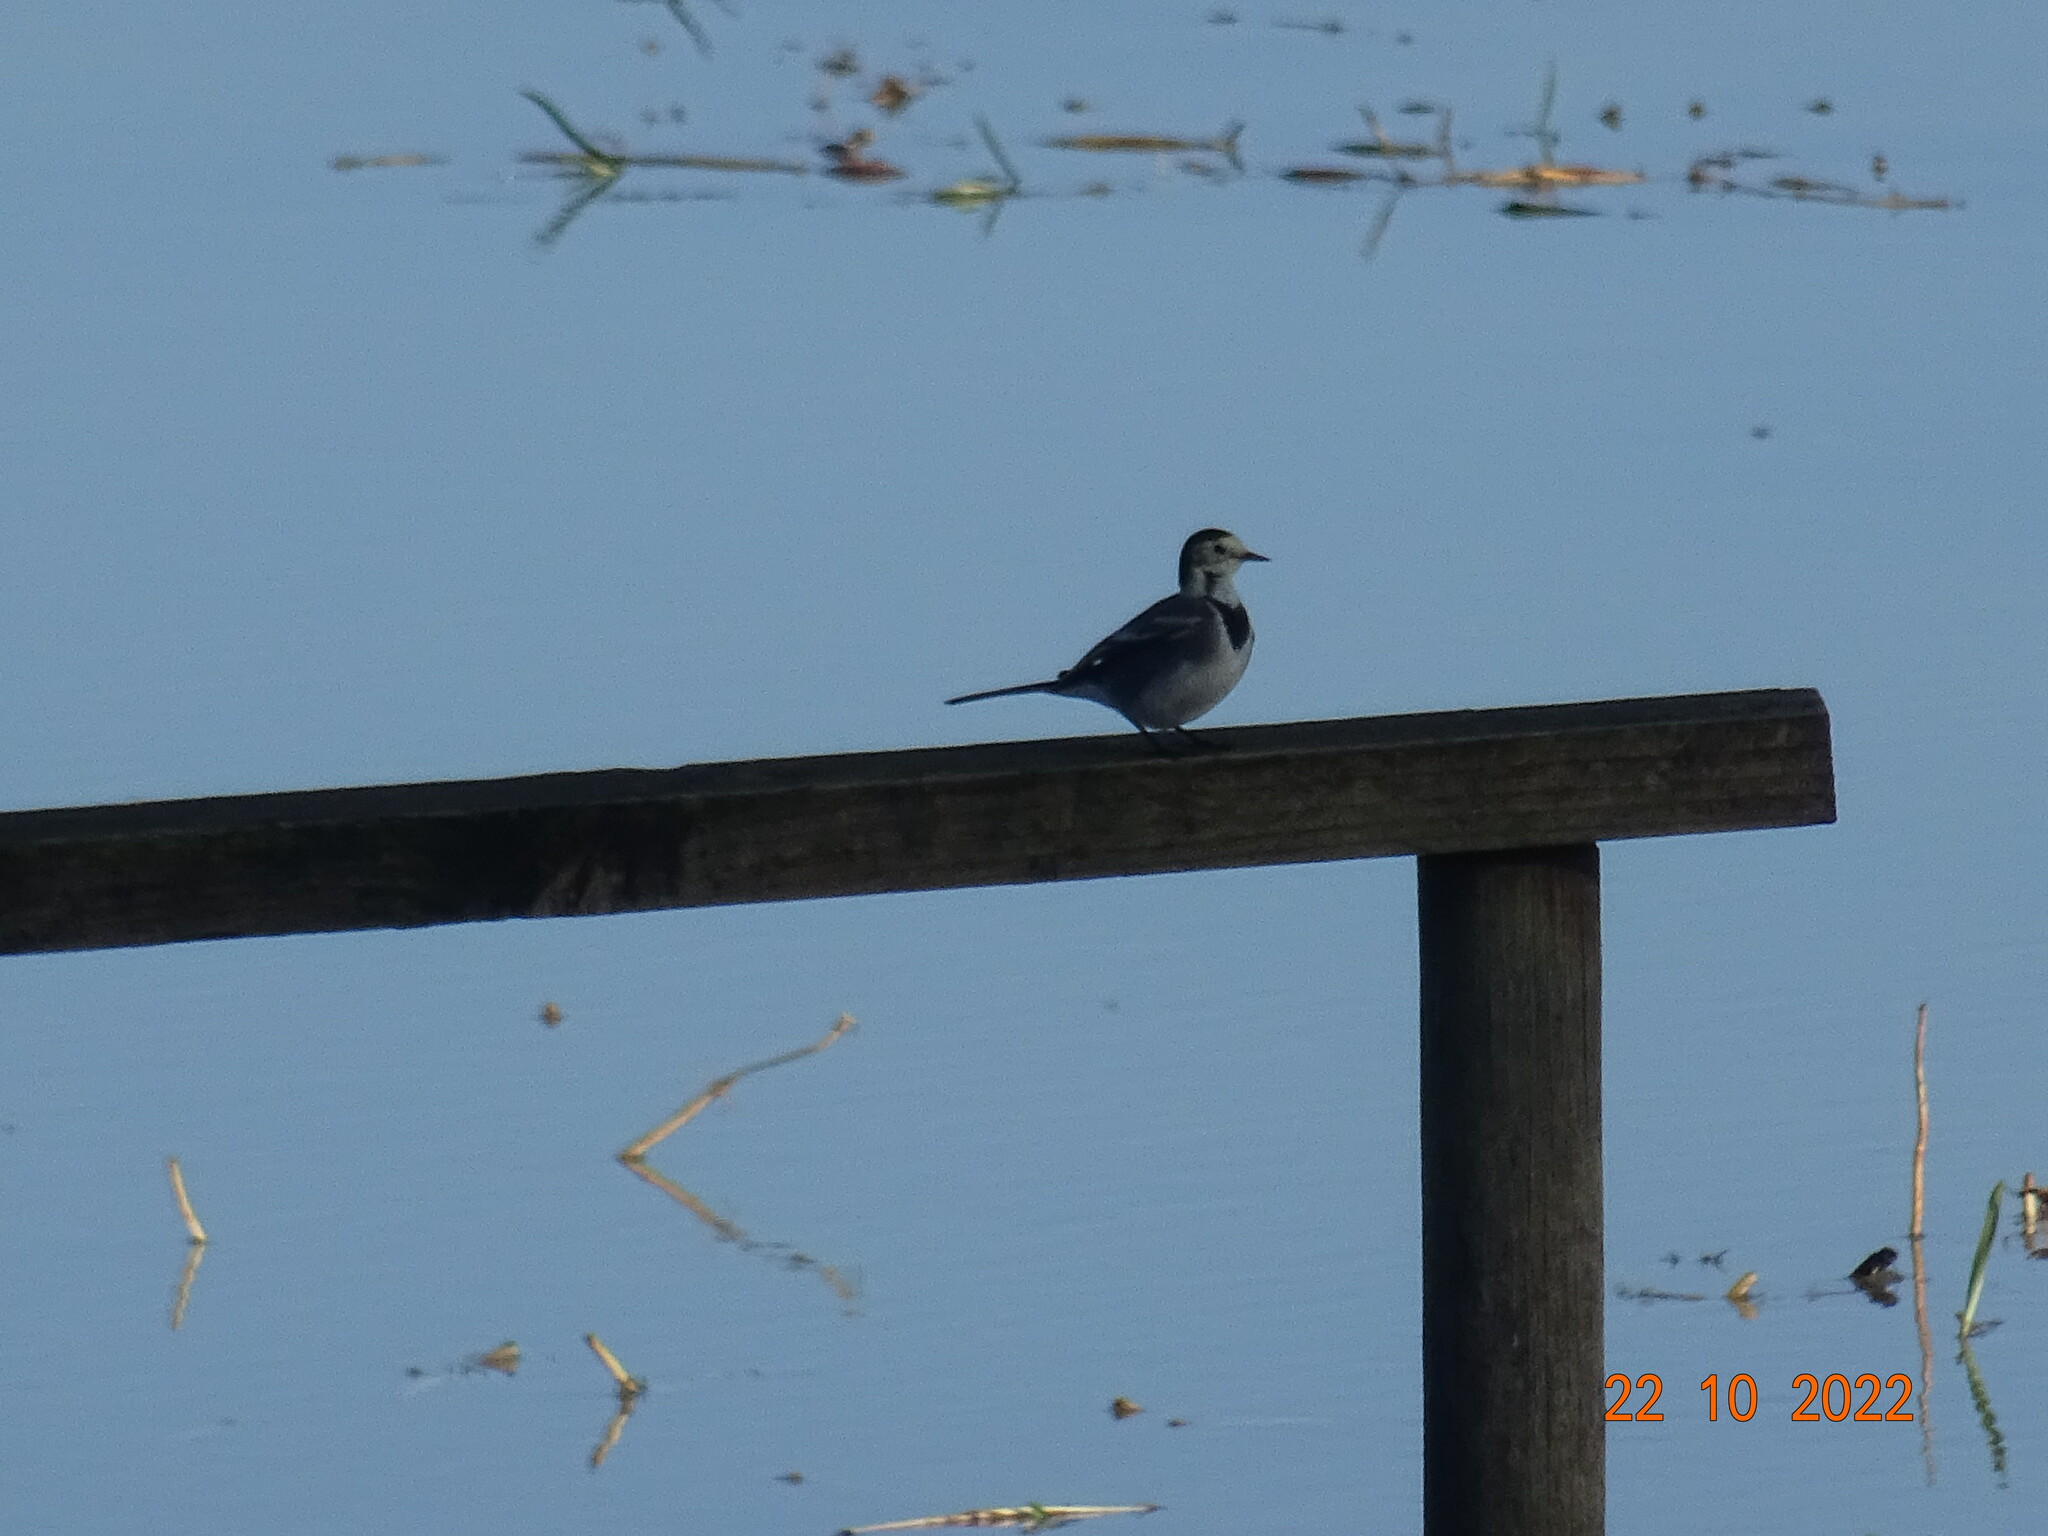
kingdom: Animalia
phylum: Chordata
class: Aves
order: Passeriformes
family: Motacillidae
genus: Motacilla
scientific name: Motacilla alba
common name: White wagtail
